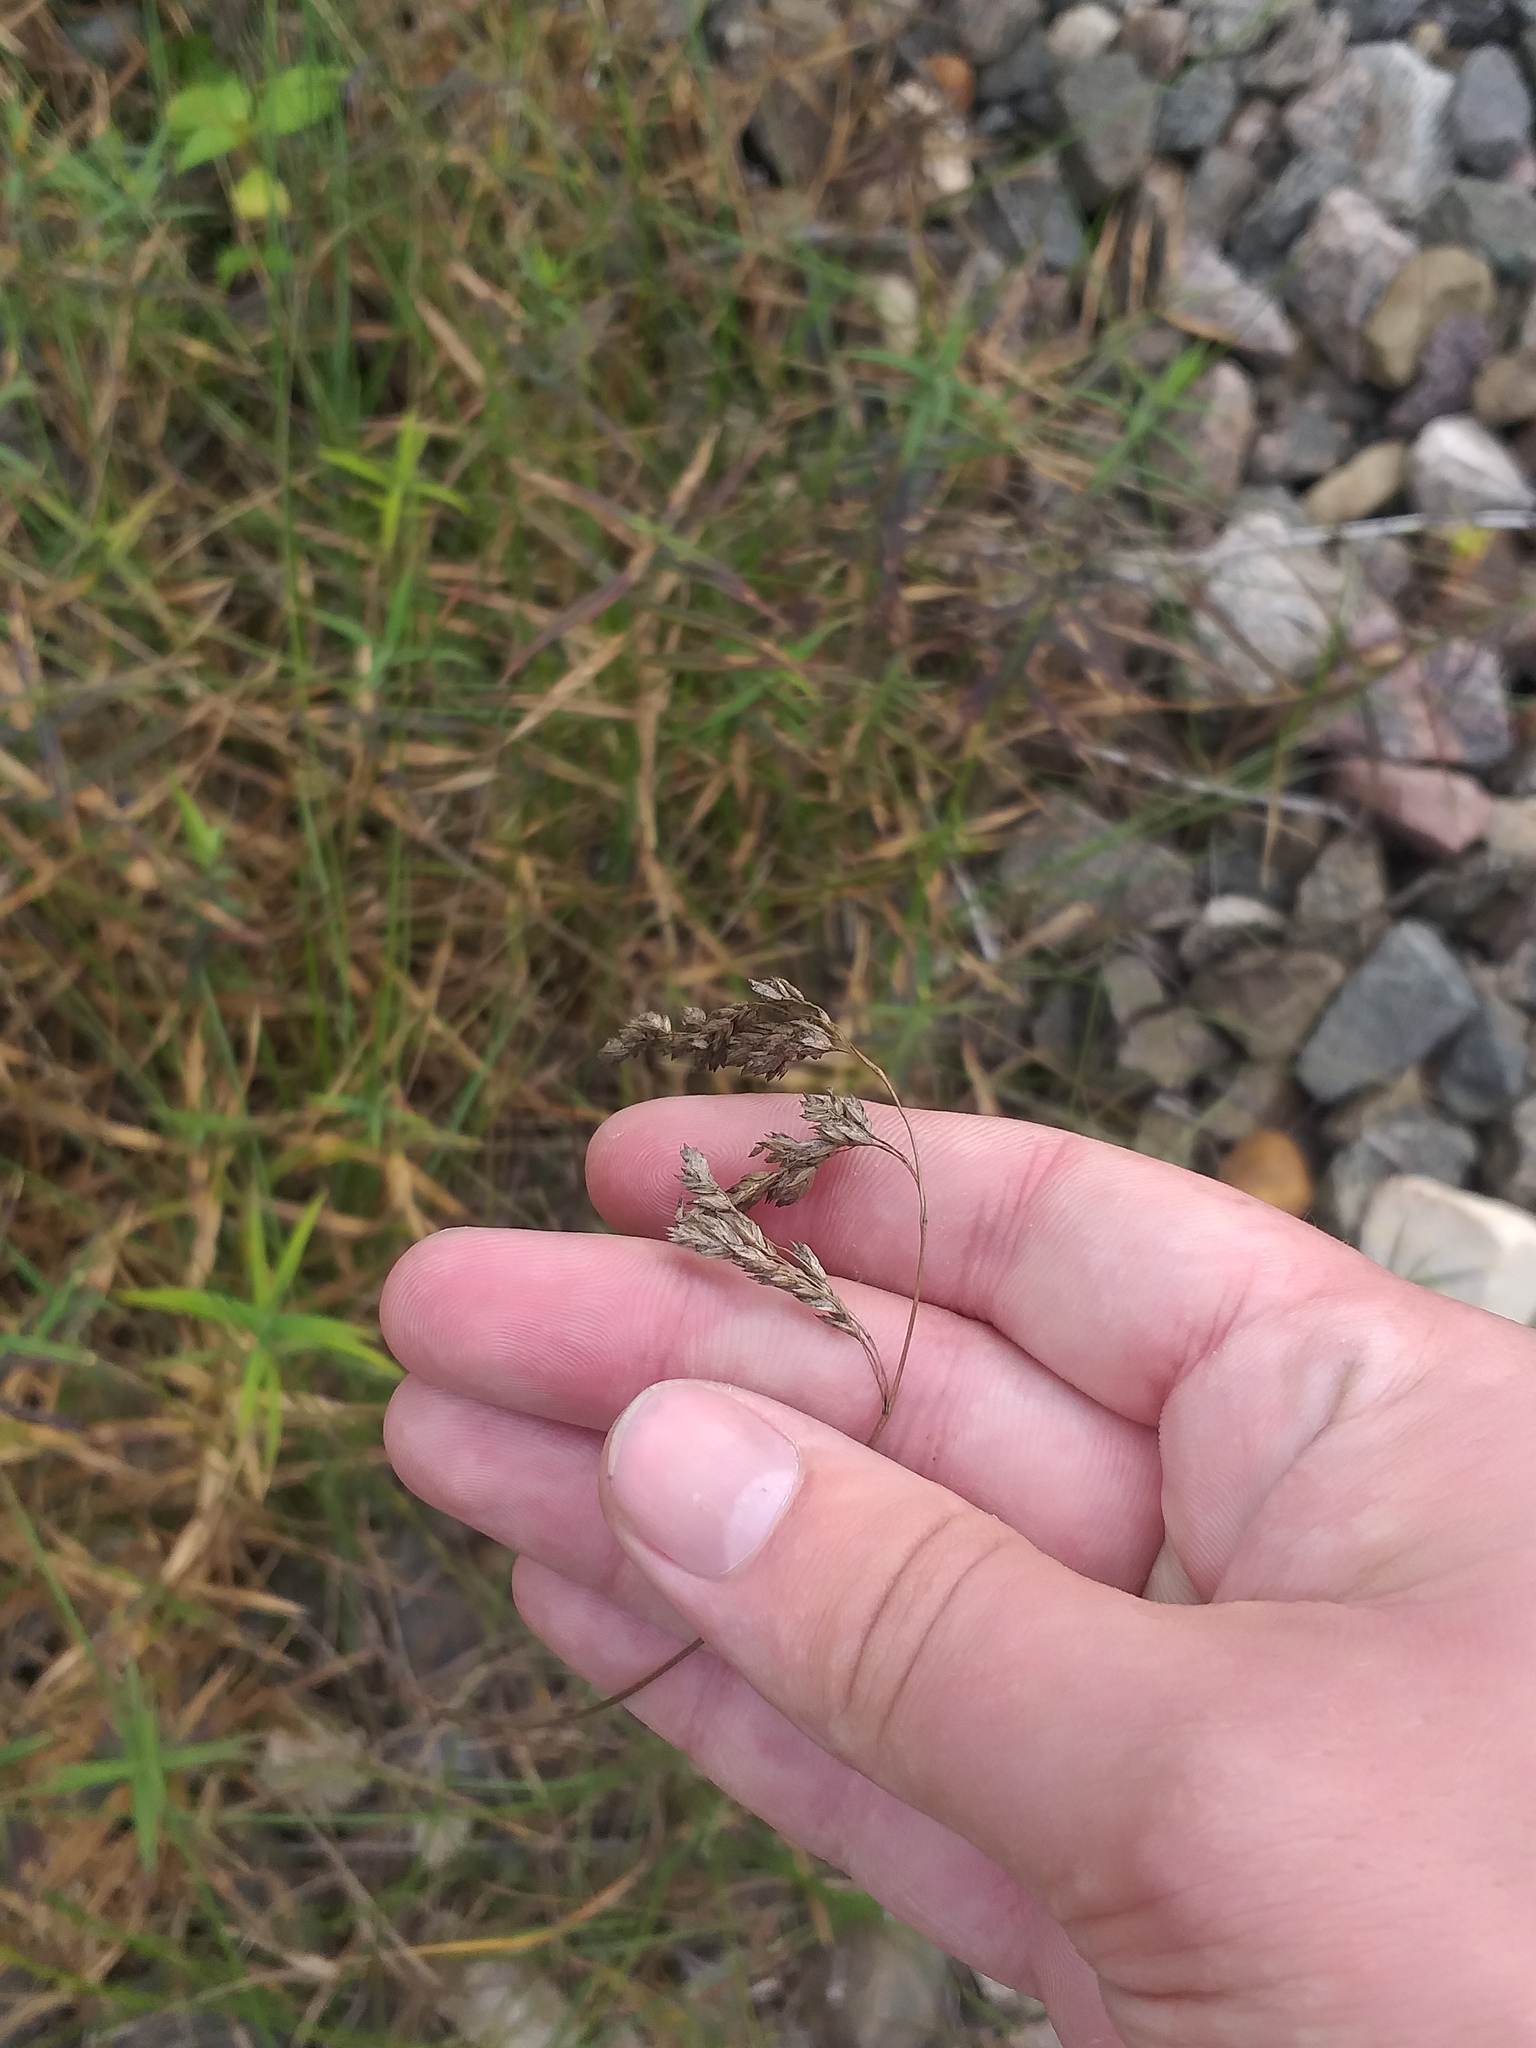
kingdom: Plantae
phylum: Tracheophyta
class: Liliopsida
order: Poales
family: Poaceae
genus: Poa
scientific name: Poa angustifolia
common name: Narrow-leaved meadow-grass
